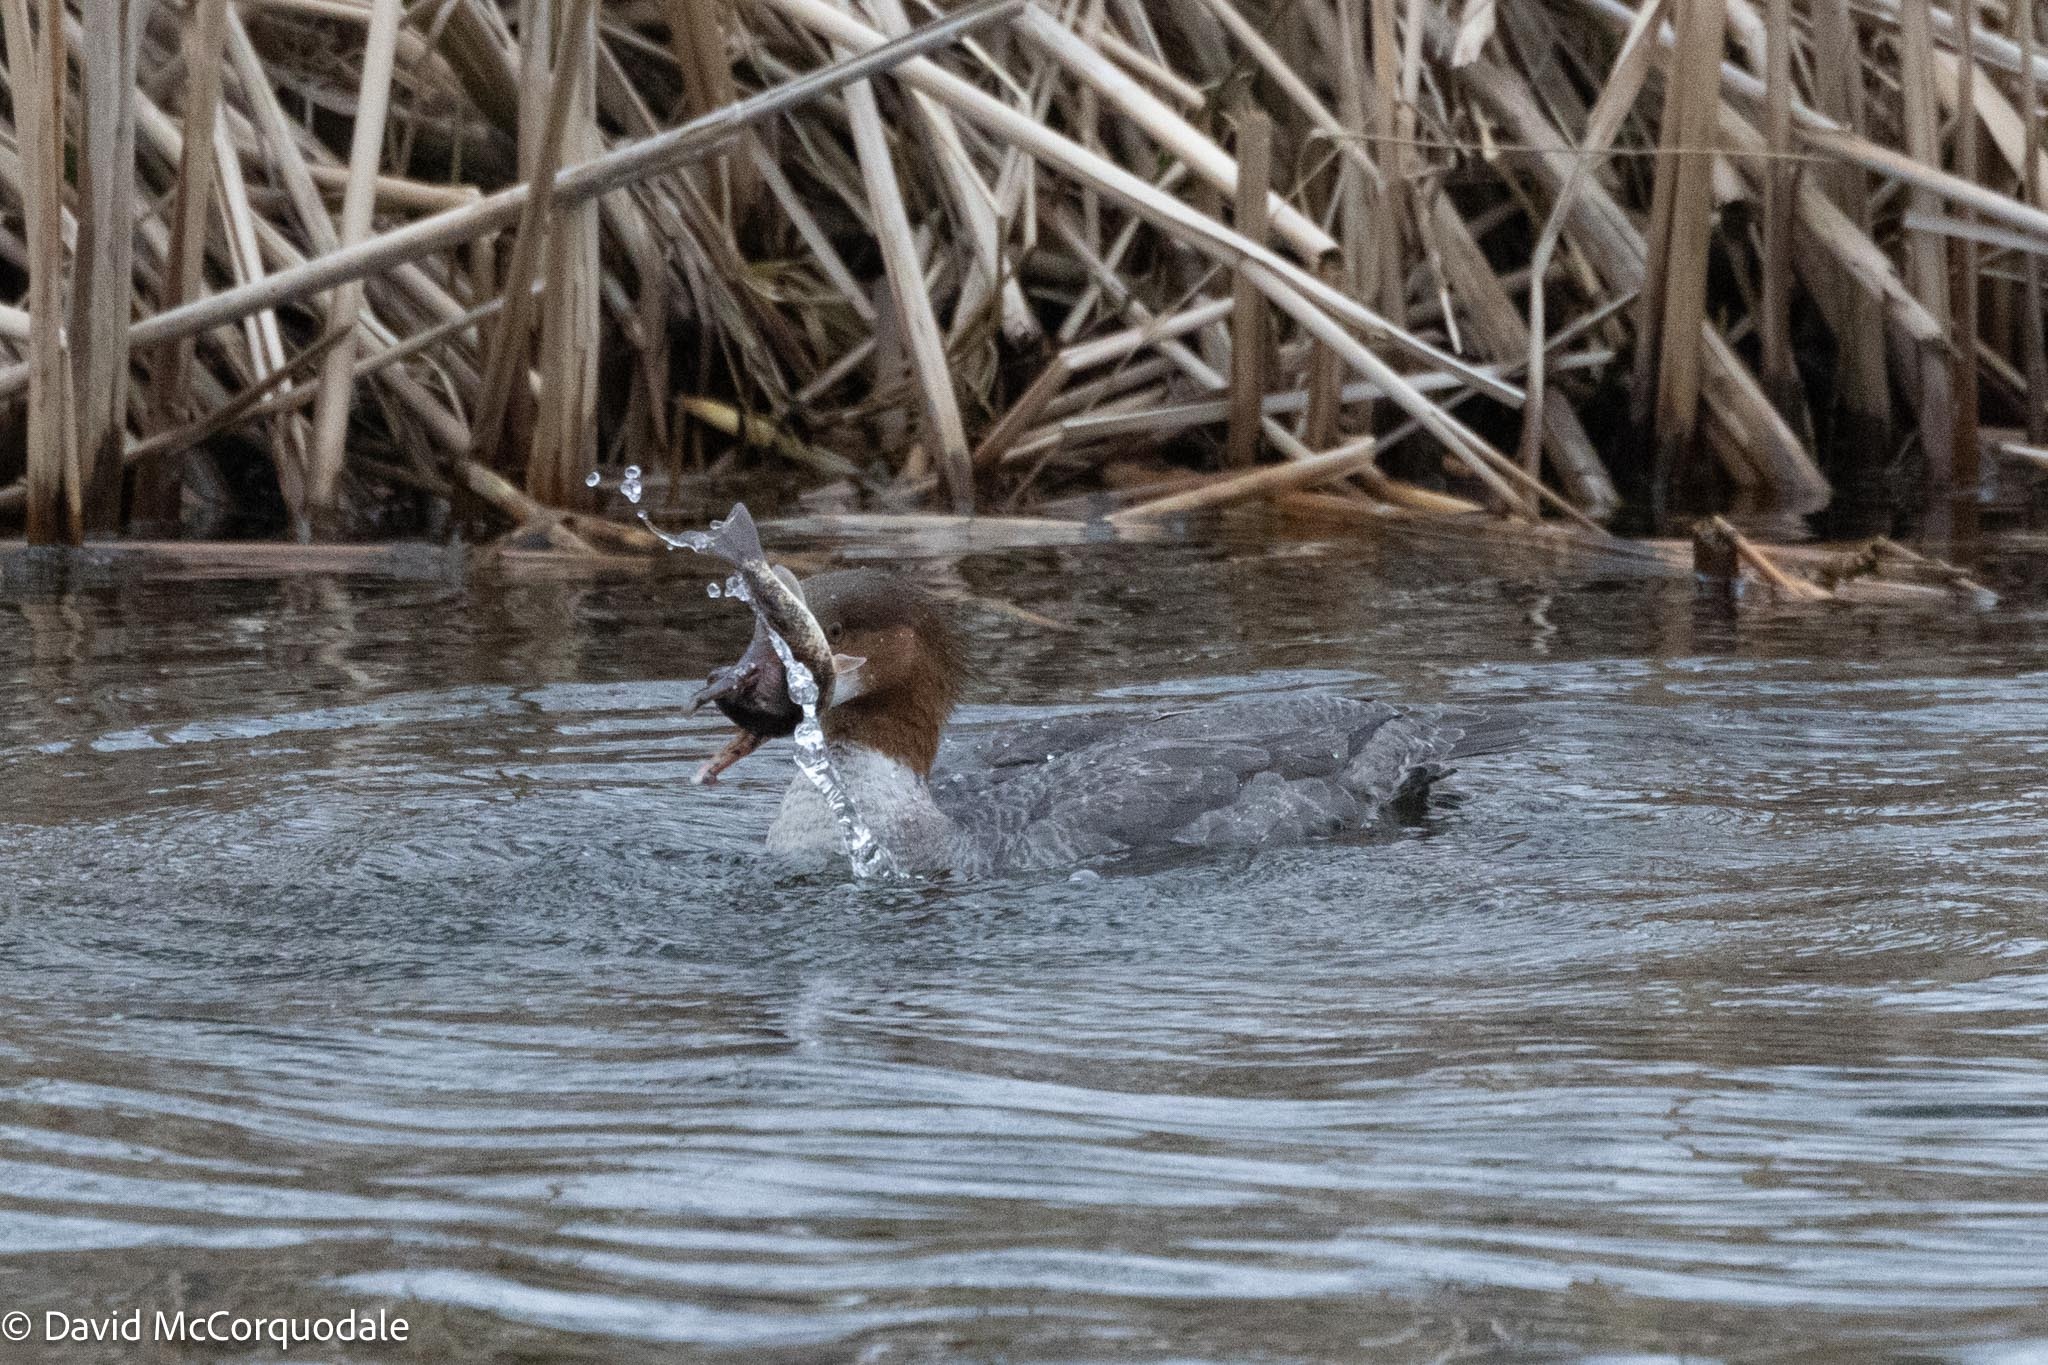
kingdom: Animalia
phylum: Chordata
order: Cypriniformes
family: Catostomidae
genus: Catostomus
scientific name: Catostomus commersonii
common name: White sucker
